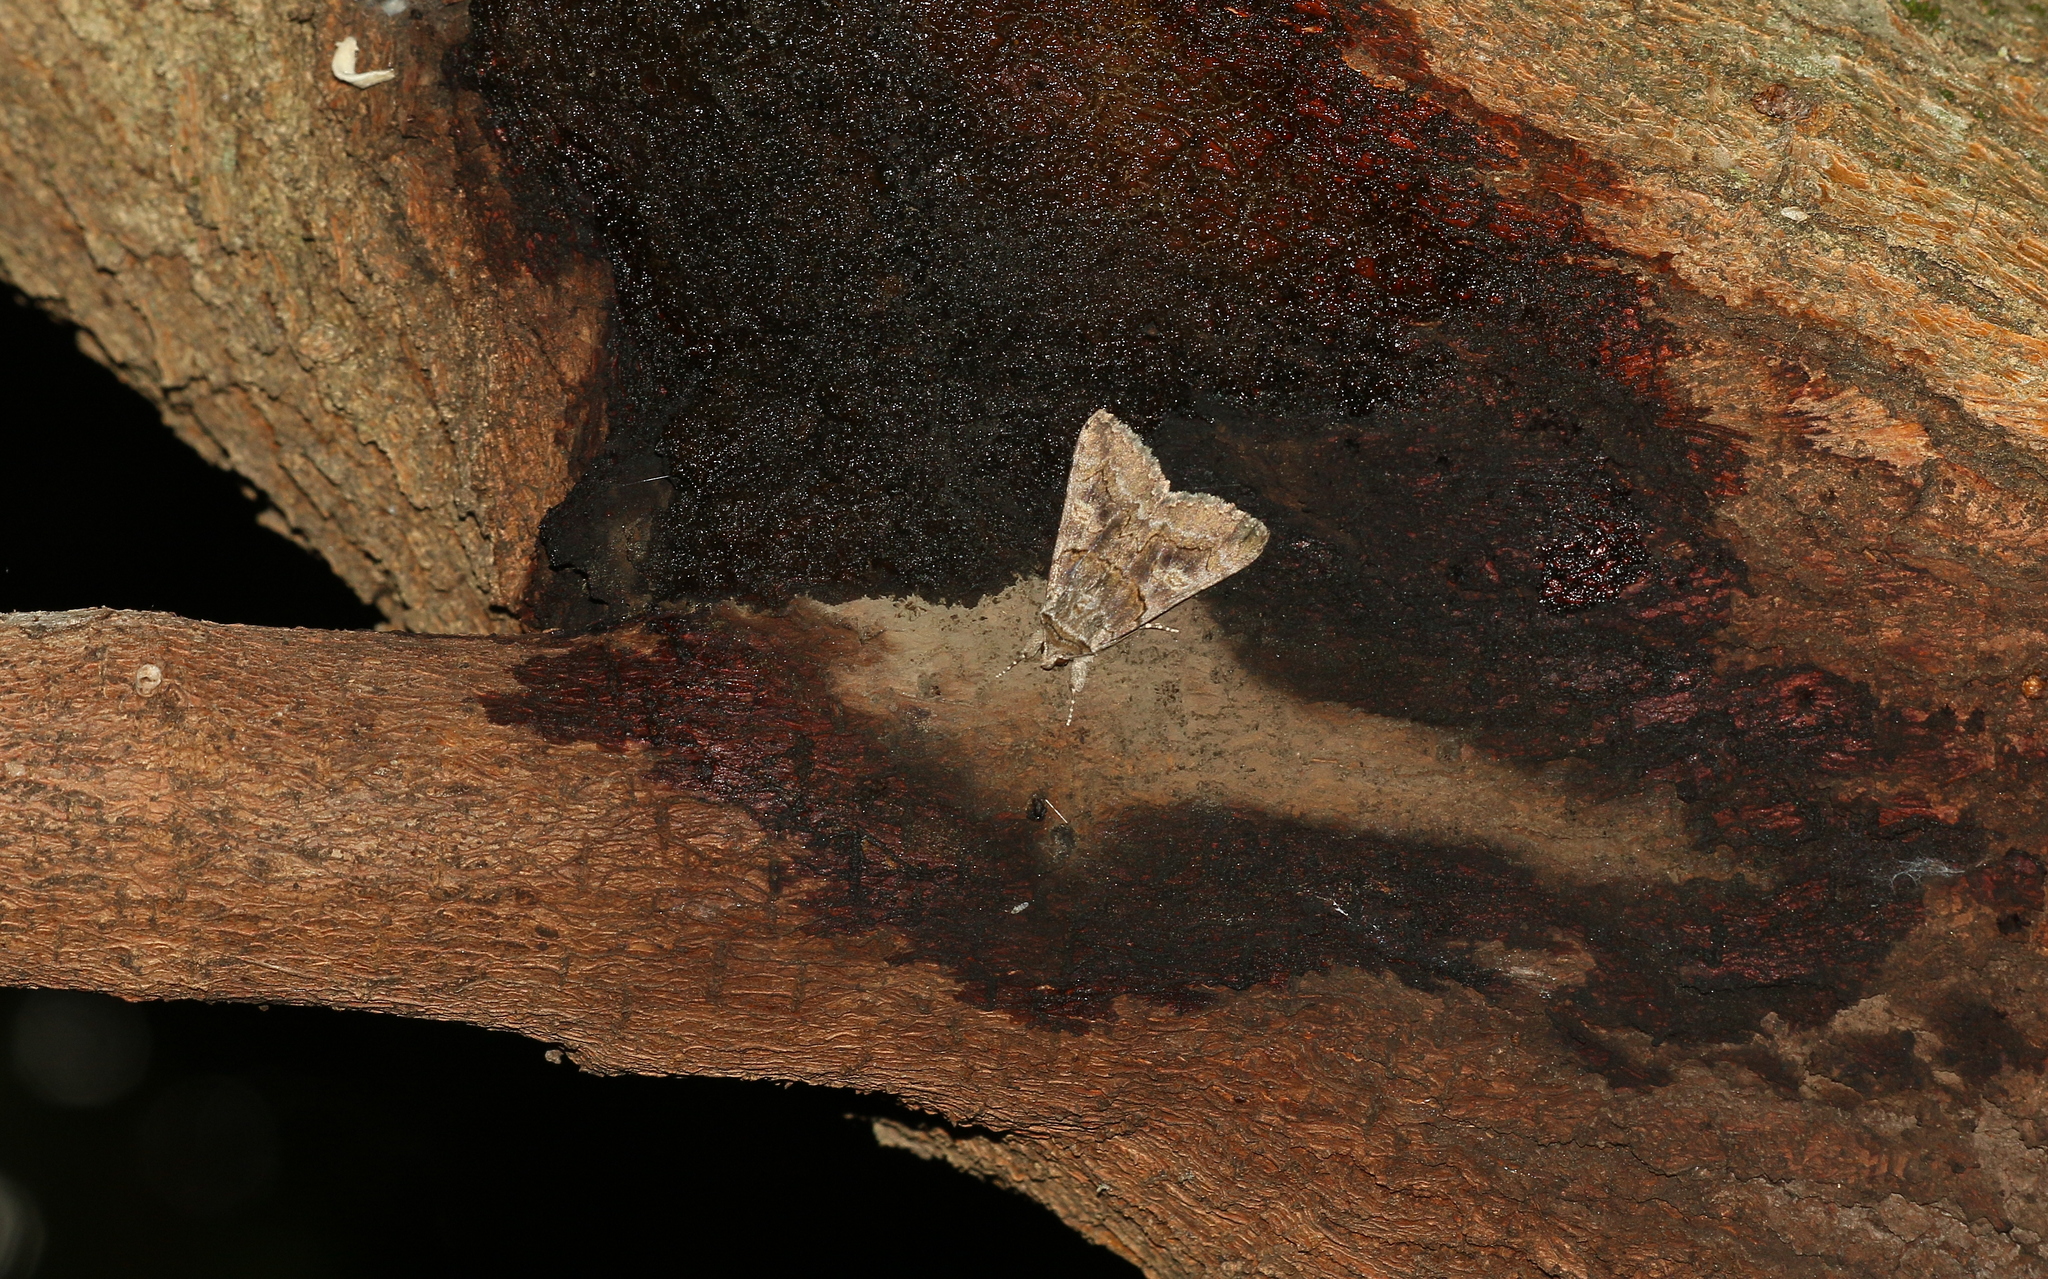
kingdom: Animalia
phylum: Arthropoda
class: Insecta
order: Lepidoptera
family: Erebidae
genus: Catocala
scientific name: Catocala eutychea
